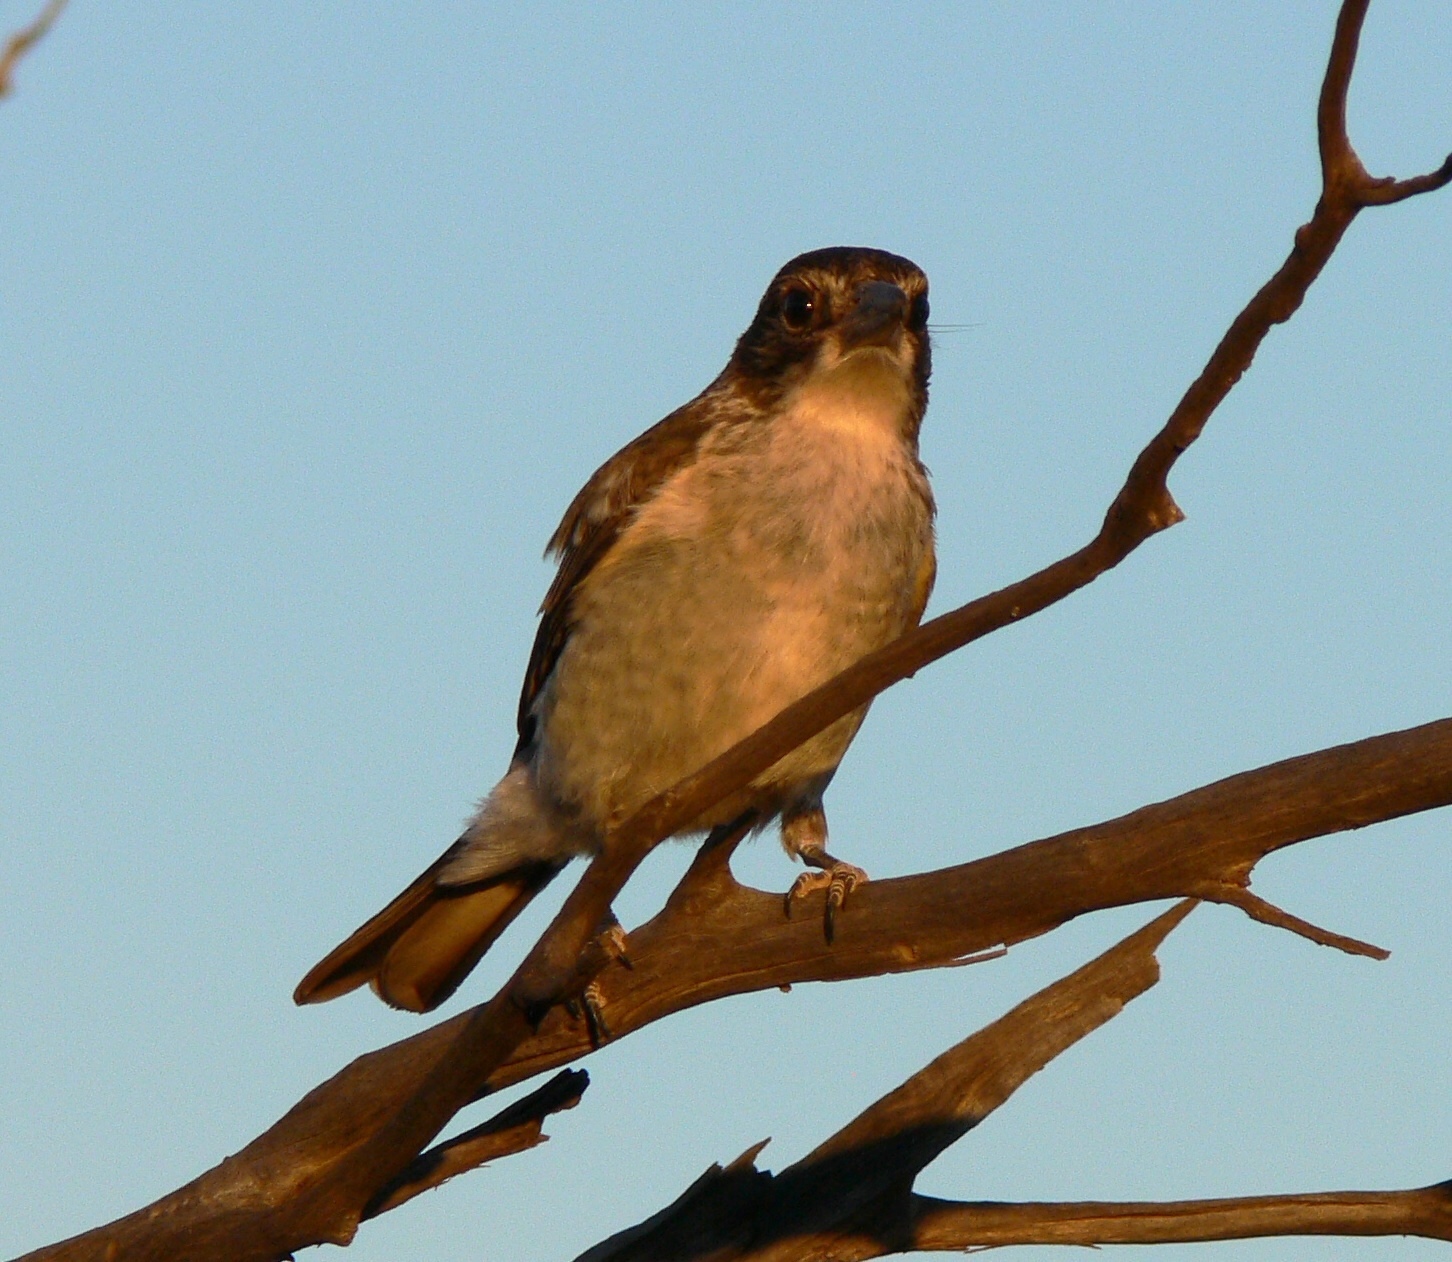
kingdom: Animalia
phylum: Chordata
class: Aves
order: Passeriformes
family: Cracticidae
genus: Cracticus
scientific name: Cracticus torquatus
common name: Grey butcherbird
